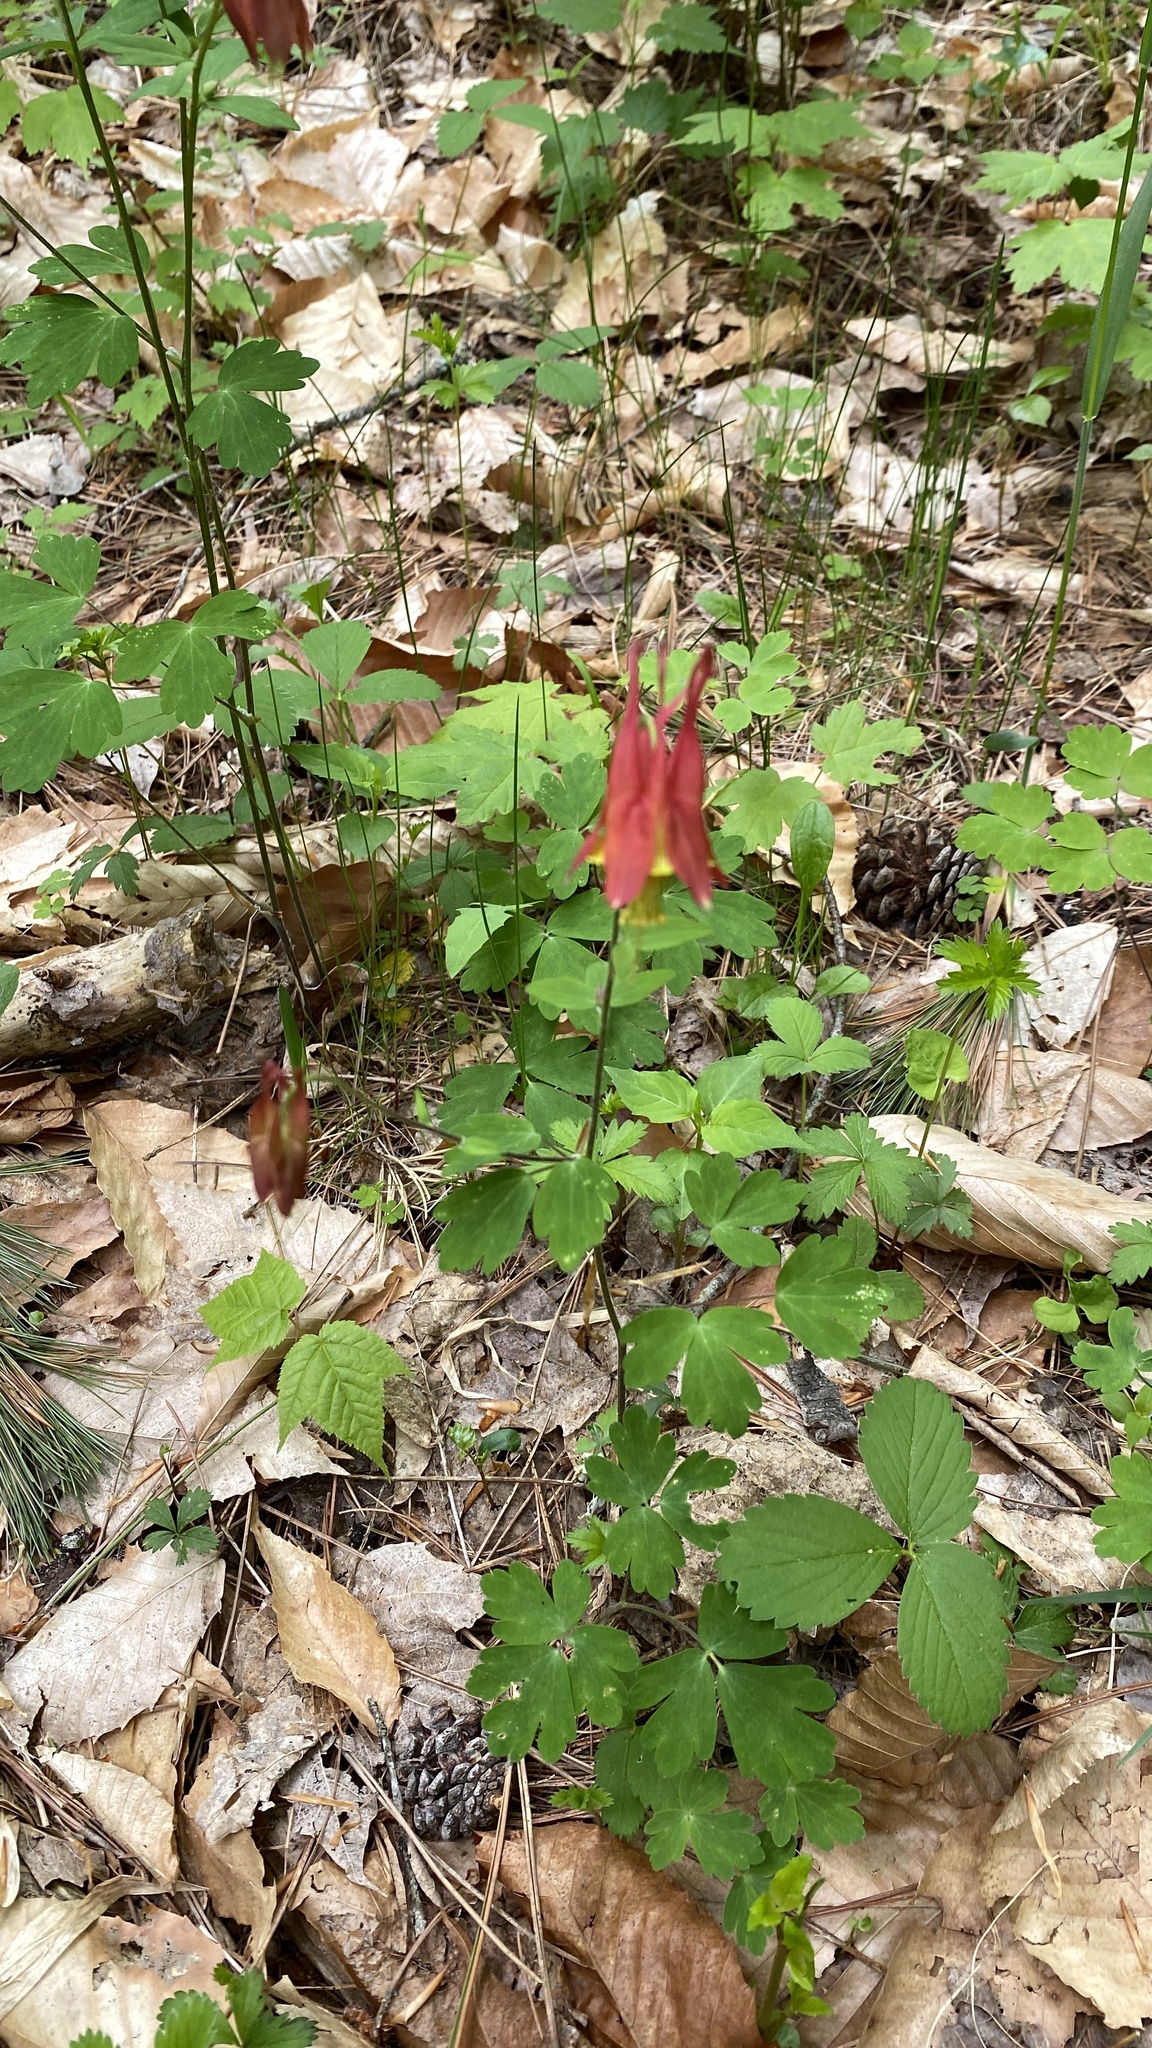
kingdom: Plantae
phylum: Tracheophyta
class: Magnoliopsida
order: Ranunculales
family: Ranunculaceae
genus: Aquilegia
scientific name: Aquilegia canadensis
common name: American columbine
